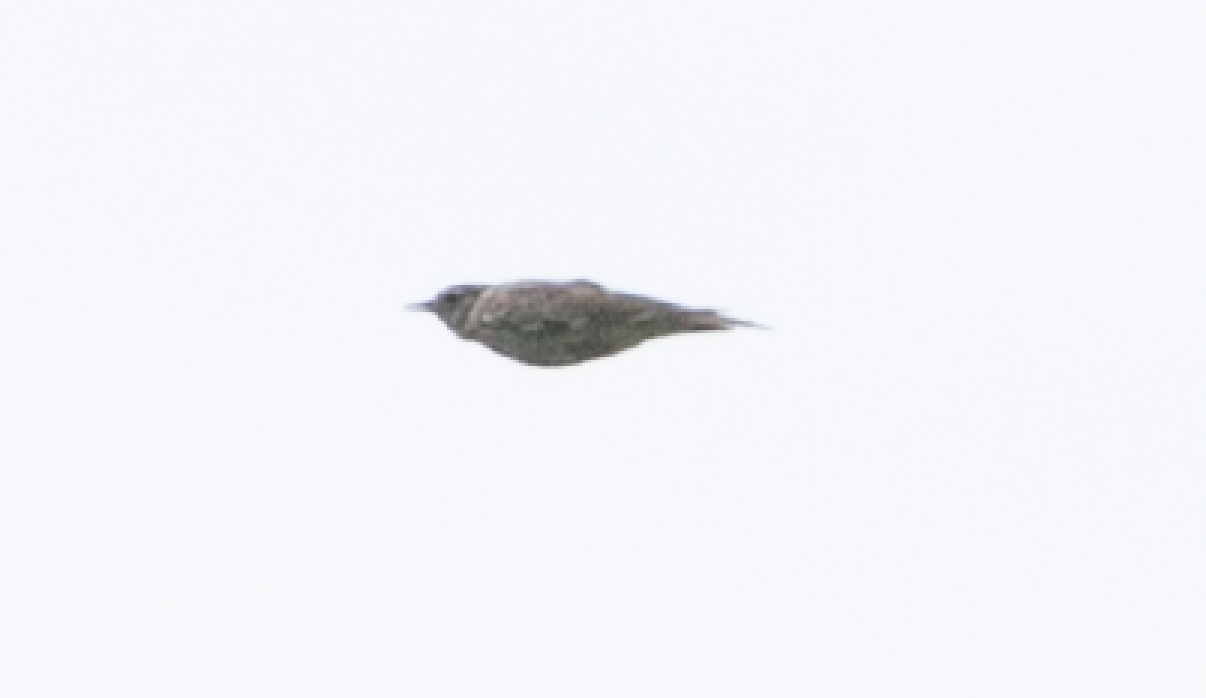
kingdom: Animalia
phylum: Chordata
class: Aves
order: Passeriformes
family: Alaudidae
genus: Lullula
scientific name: Lullula arborea
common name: Woodlark
